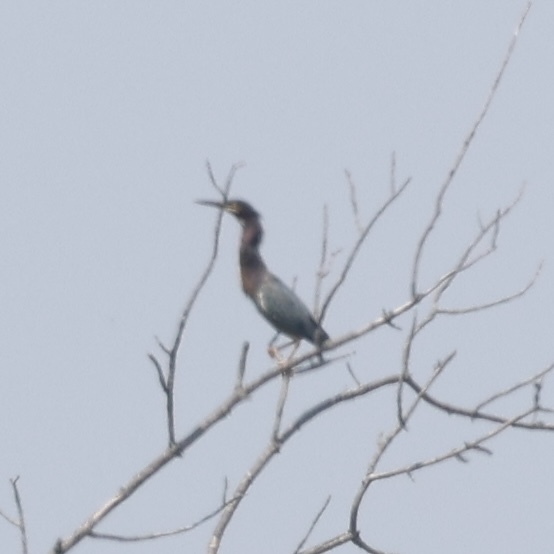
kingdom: Animalia
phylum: Chordata
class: Aves
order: Pelecaniformes
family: Ardeidae
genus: Butorides
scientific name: Butorides virescens
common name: Green heron
